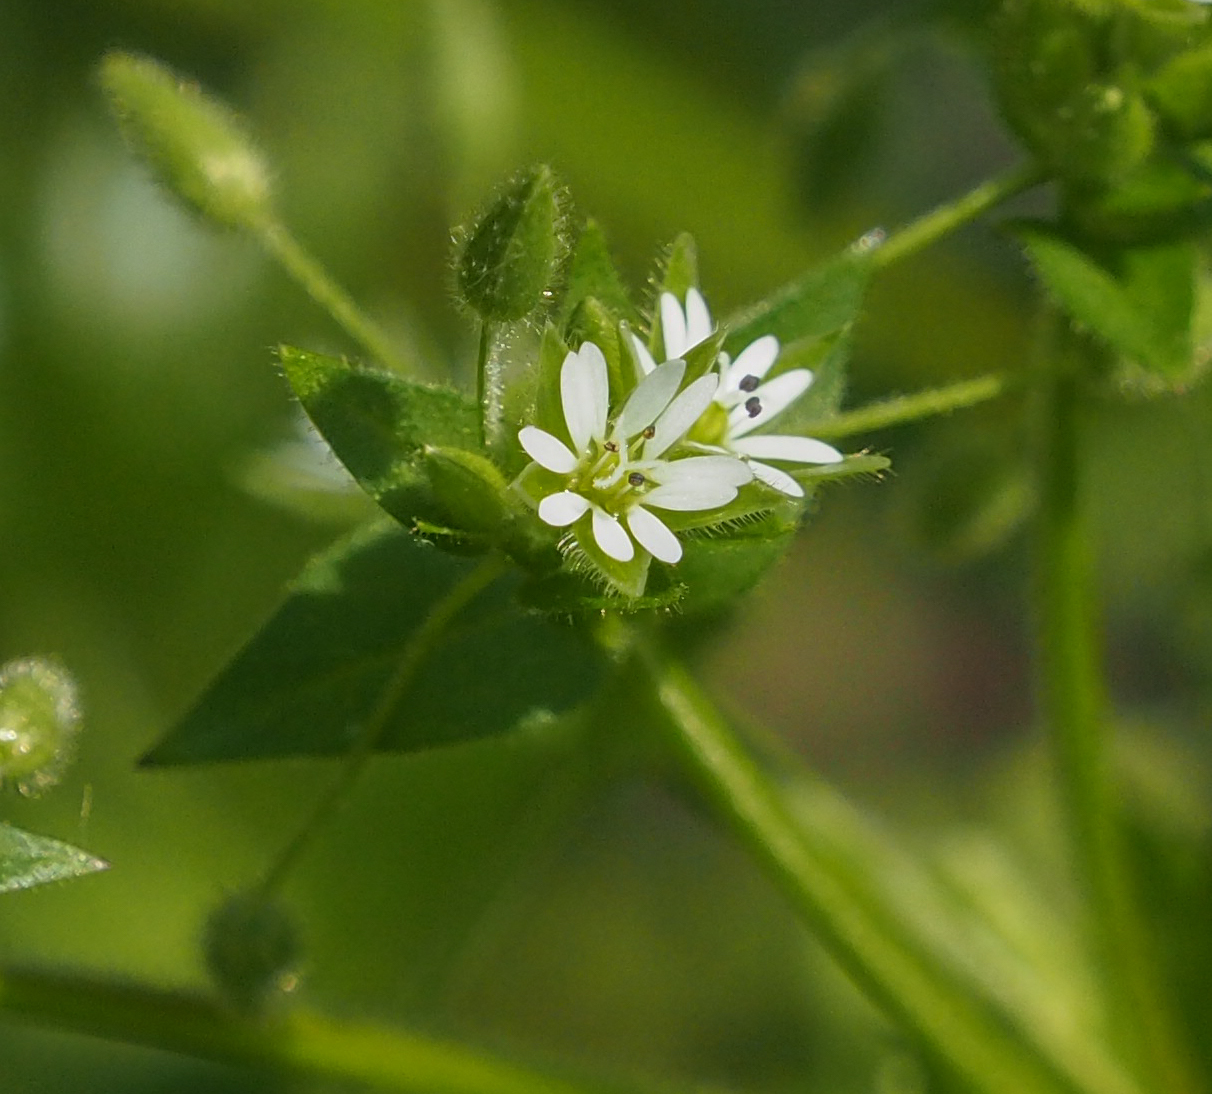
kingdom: Plantae
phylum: Tracheophyta
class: Magnoliopsida
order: Caryophyllales
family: Caryophyllaceae
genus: Stellaria
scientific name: Stellaria media
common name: Common chickweed
